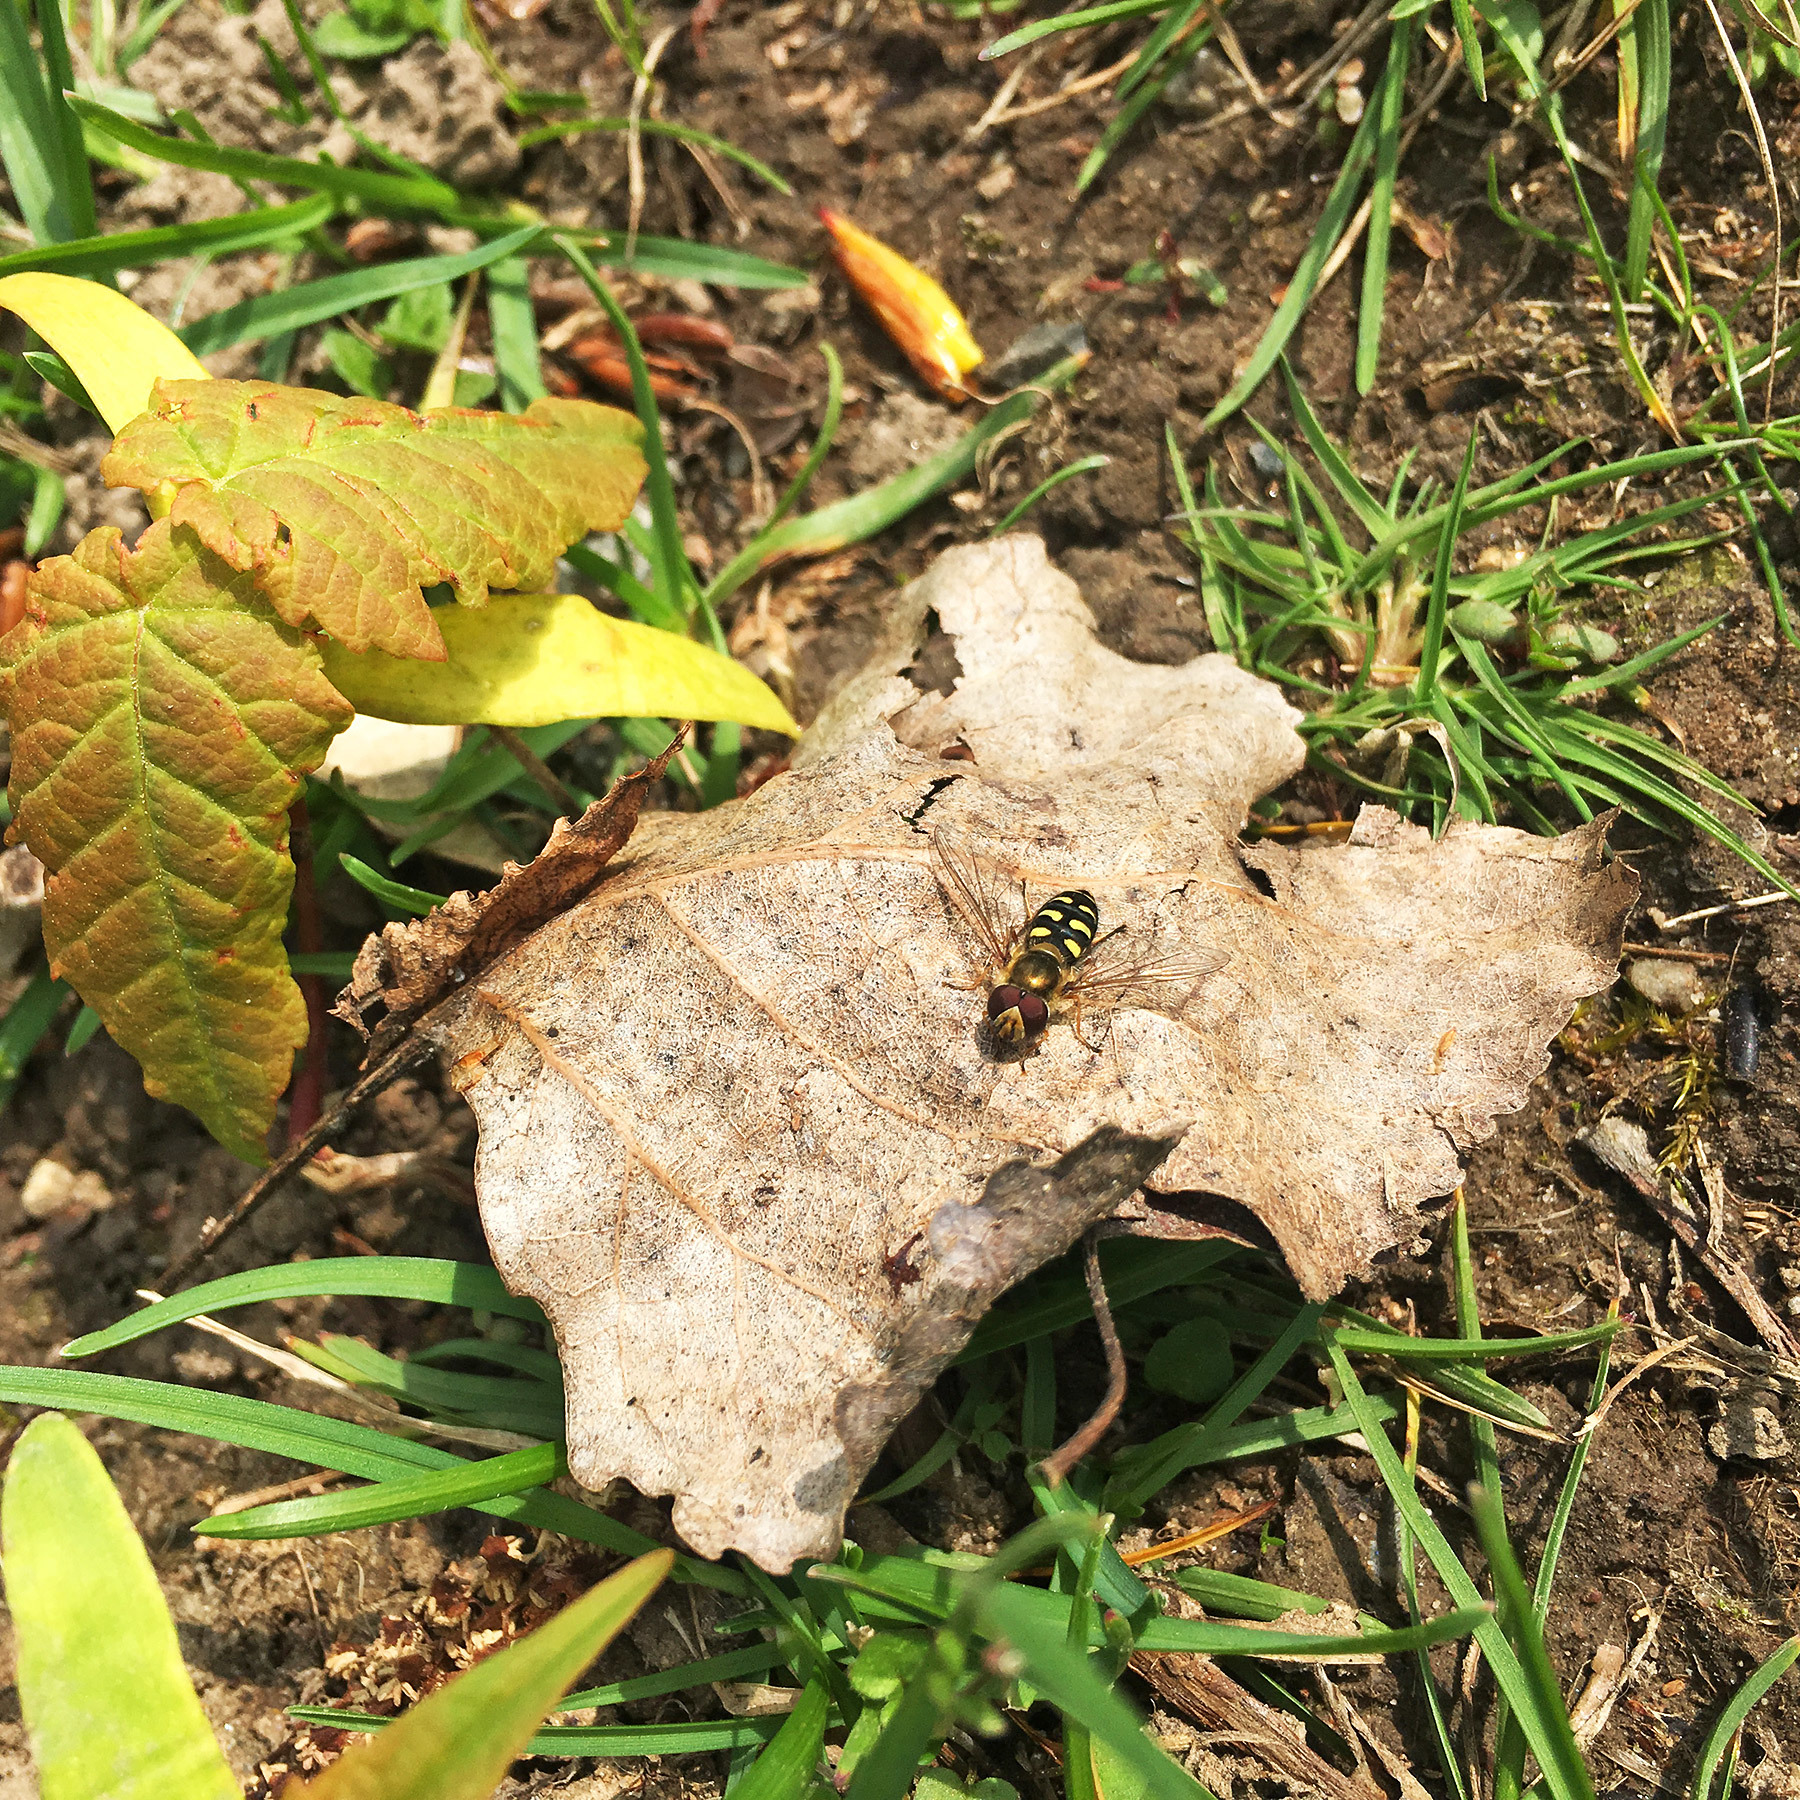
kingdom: Animalia
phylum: Arthropoda
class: Insecta
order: Diptera
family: Syrphidae
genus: Eupeodes
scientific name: Eupeodes
